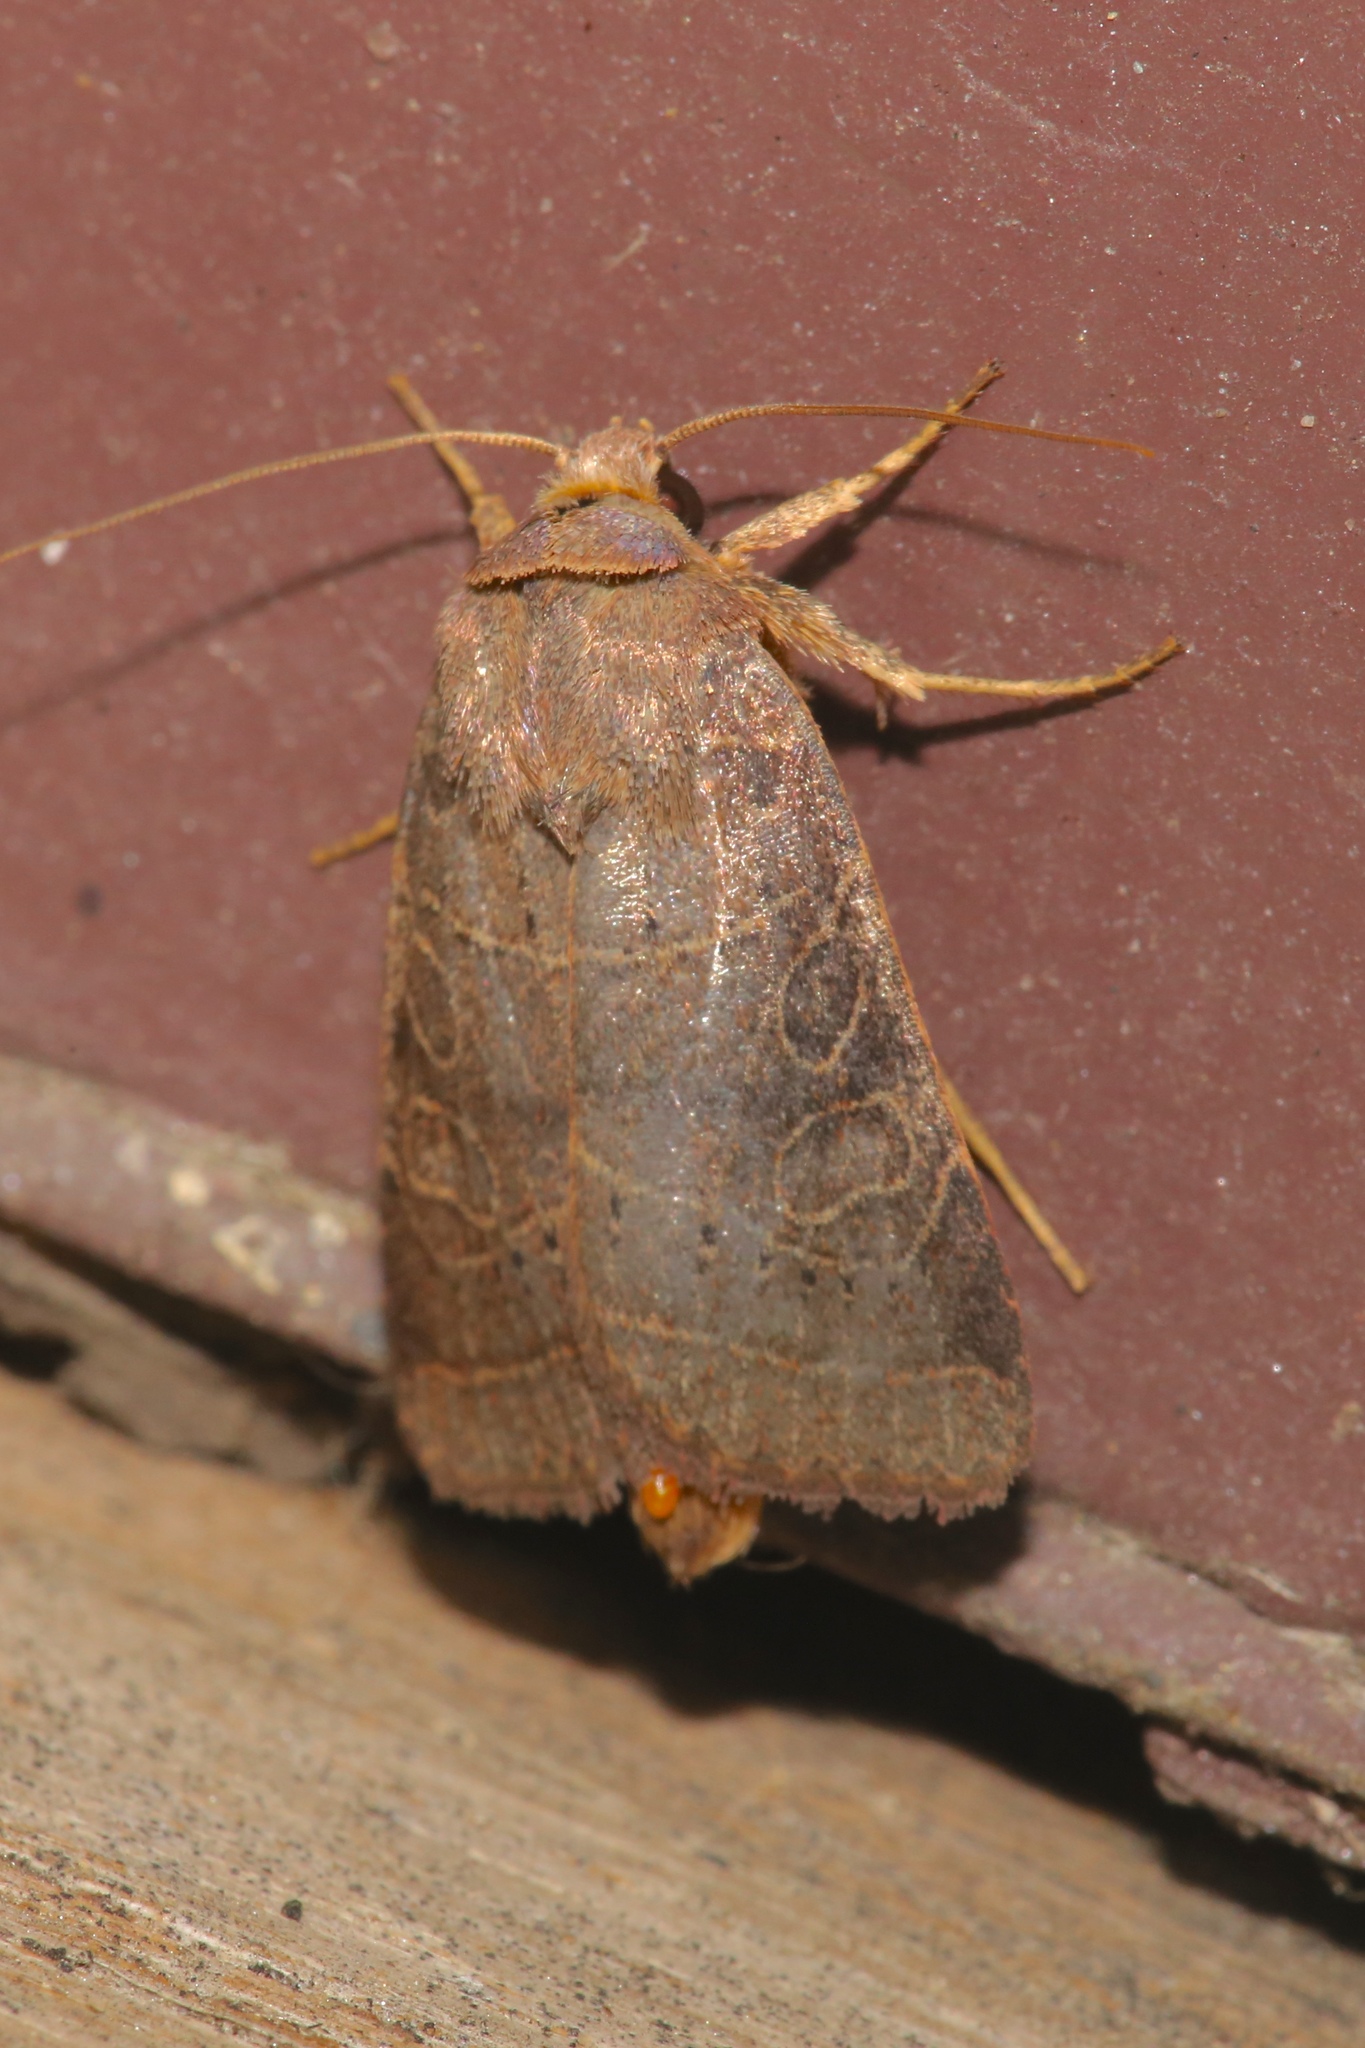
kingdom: Animalia
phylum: Arthropoda
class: Insecta
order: Lepidoptera
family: Noctuidae
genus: Orthodes
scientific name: Orthodes majuscula
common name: Rustic quaker
